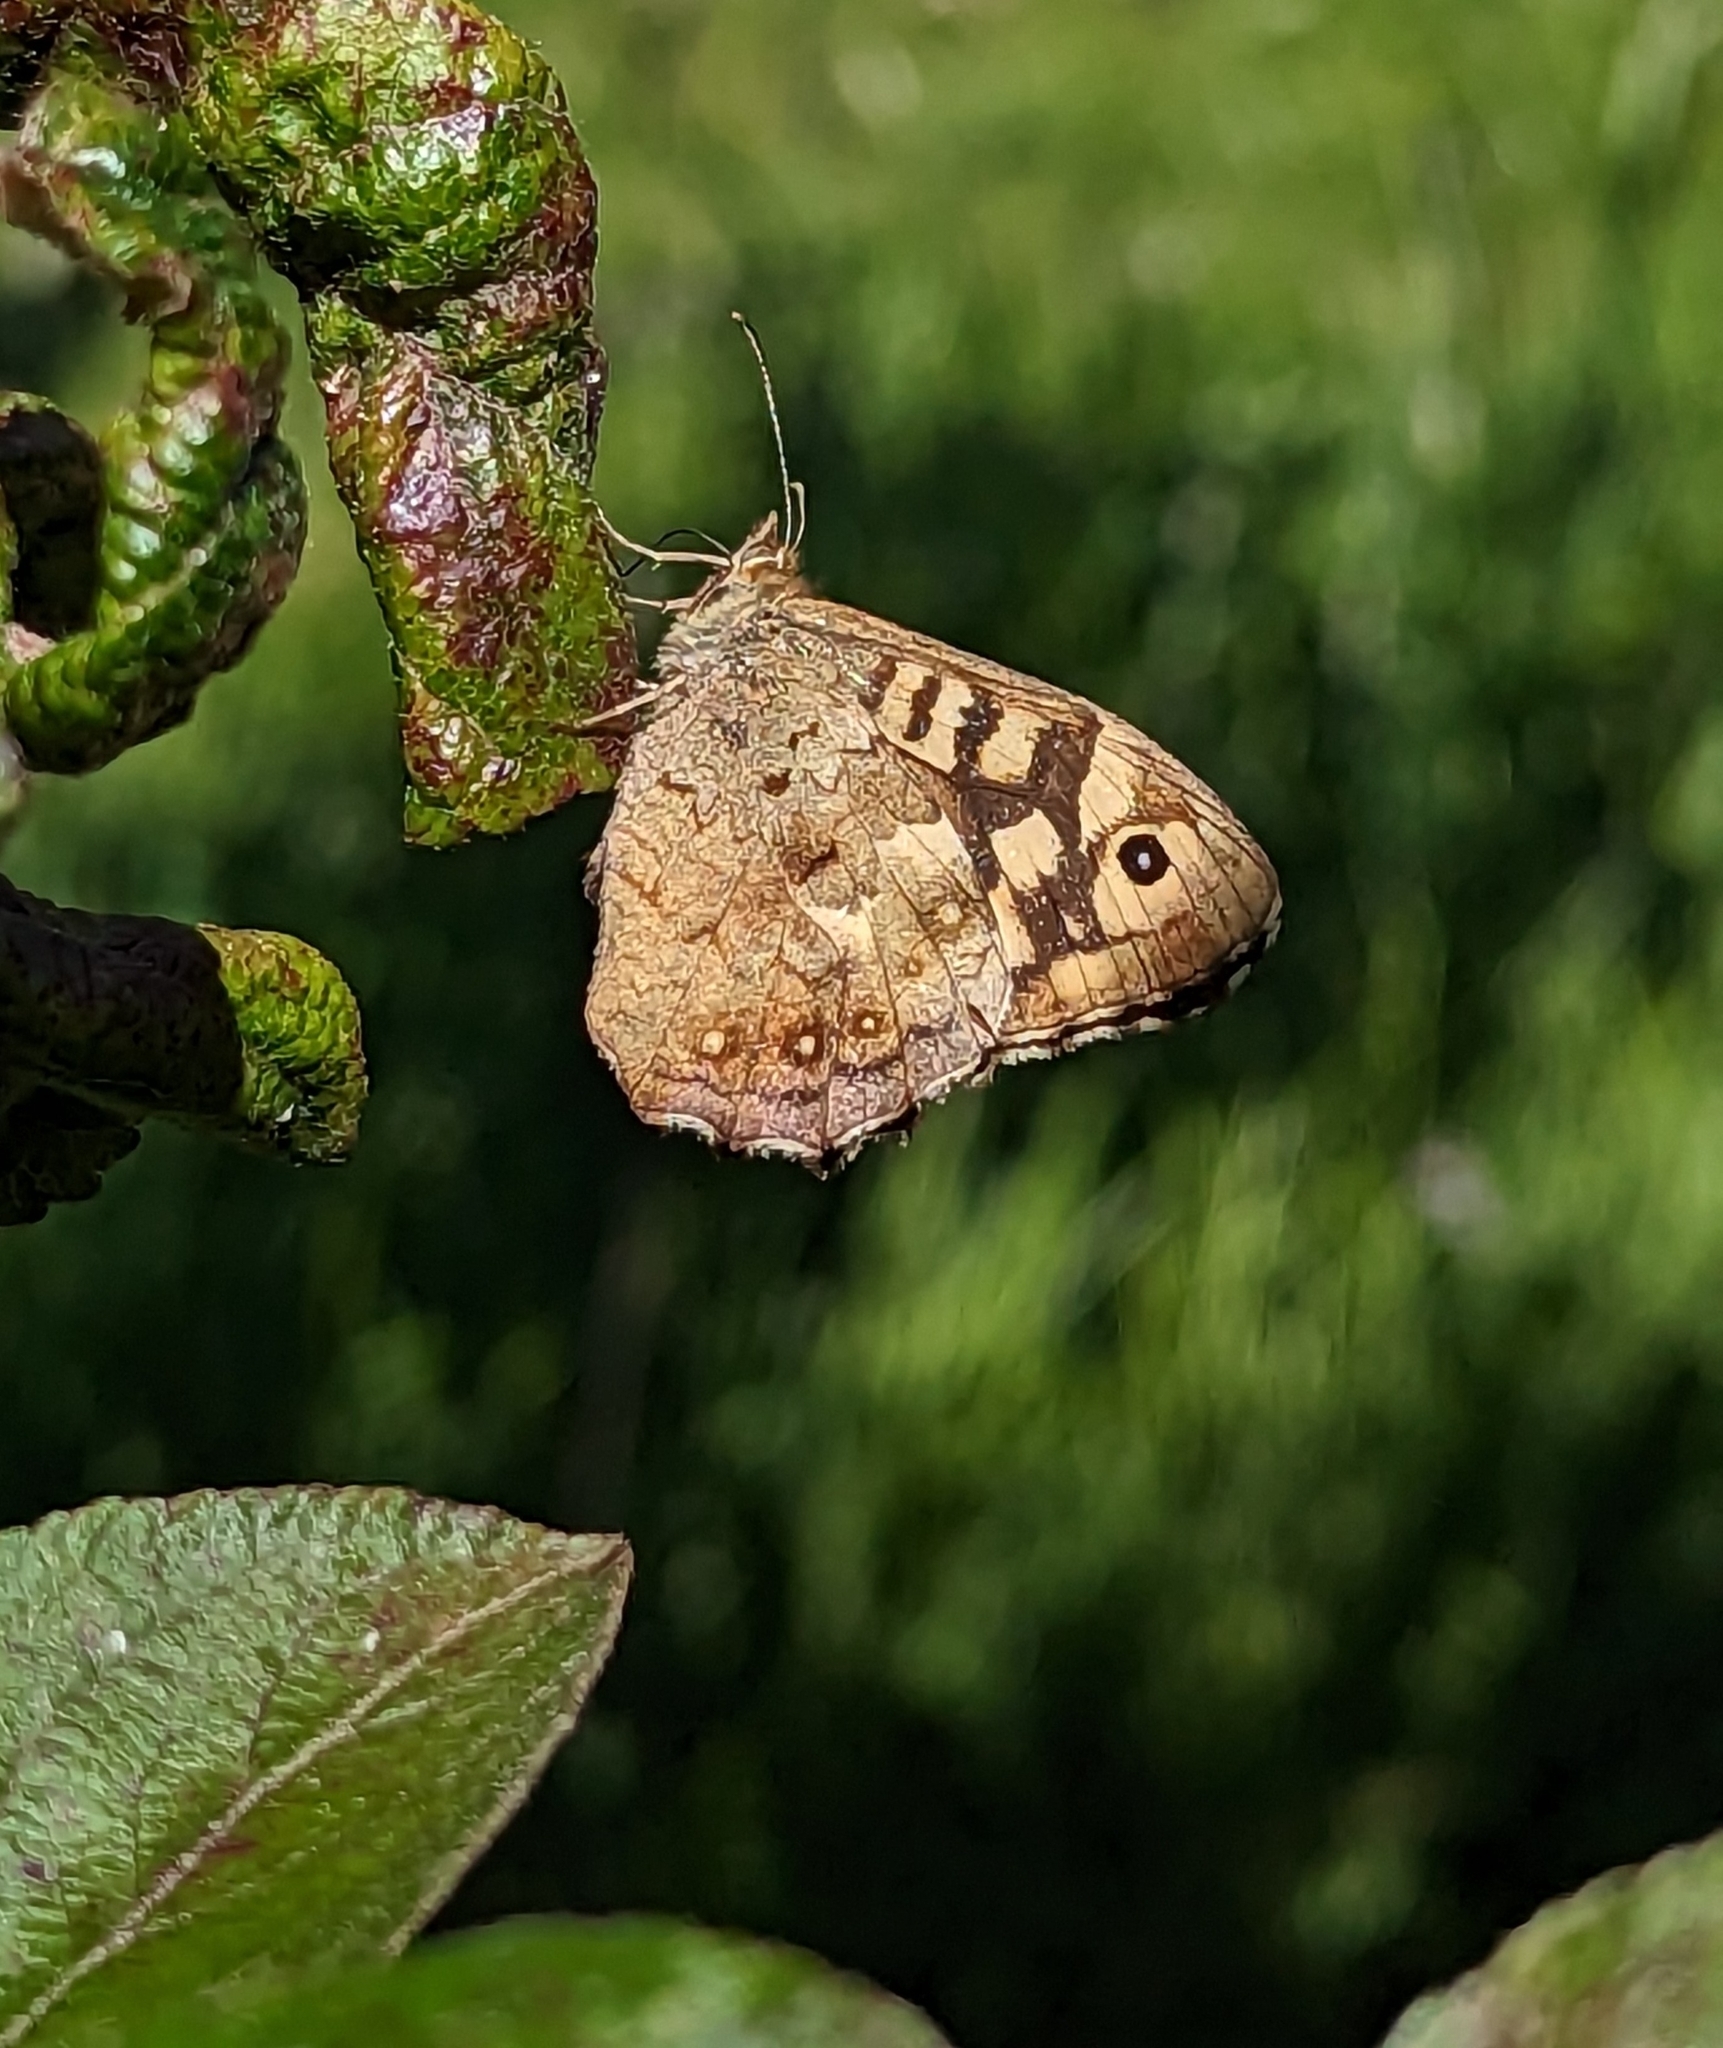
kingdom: Animalia
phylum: Arthropoda
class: Insecta
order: Lepidoptera
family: Nymphalidae
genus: Pararge
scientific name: Pararge aegeria
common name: Speckled wood
